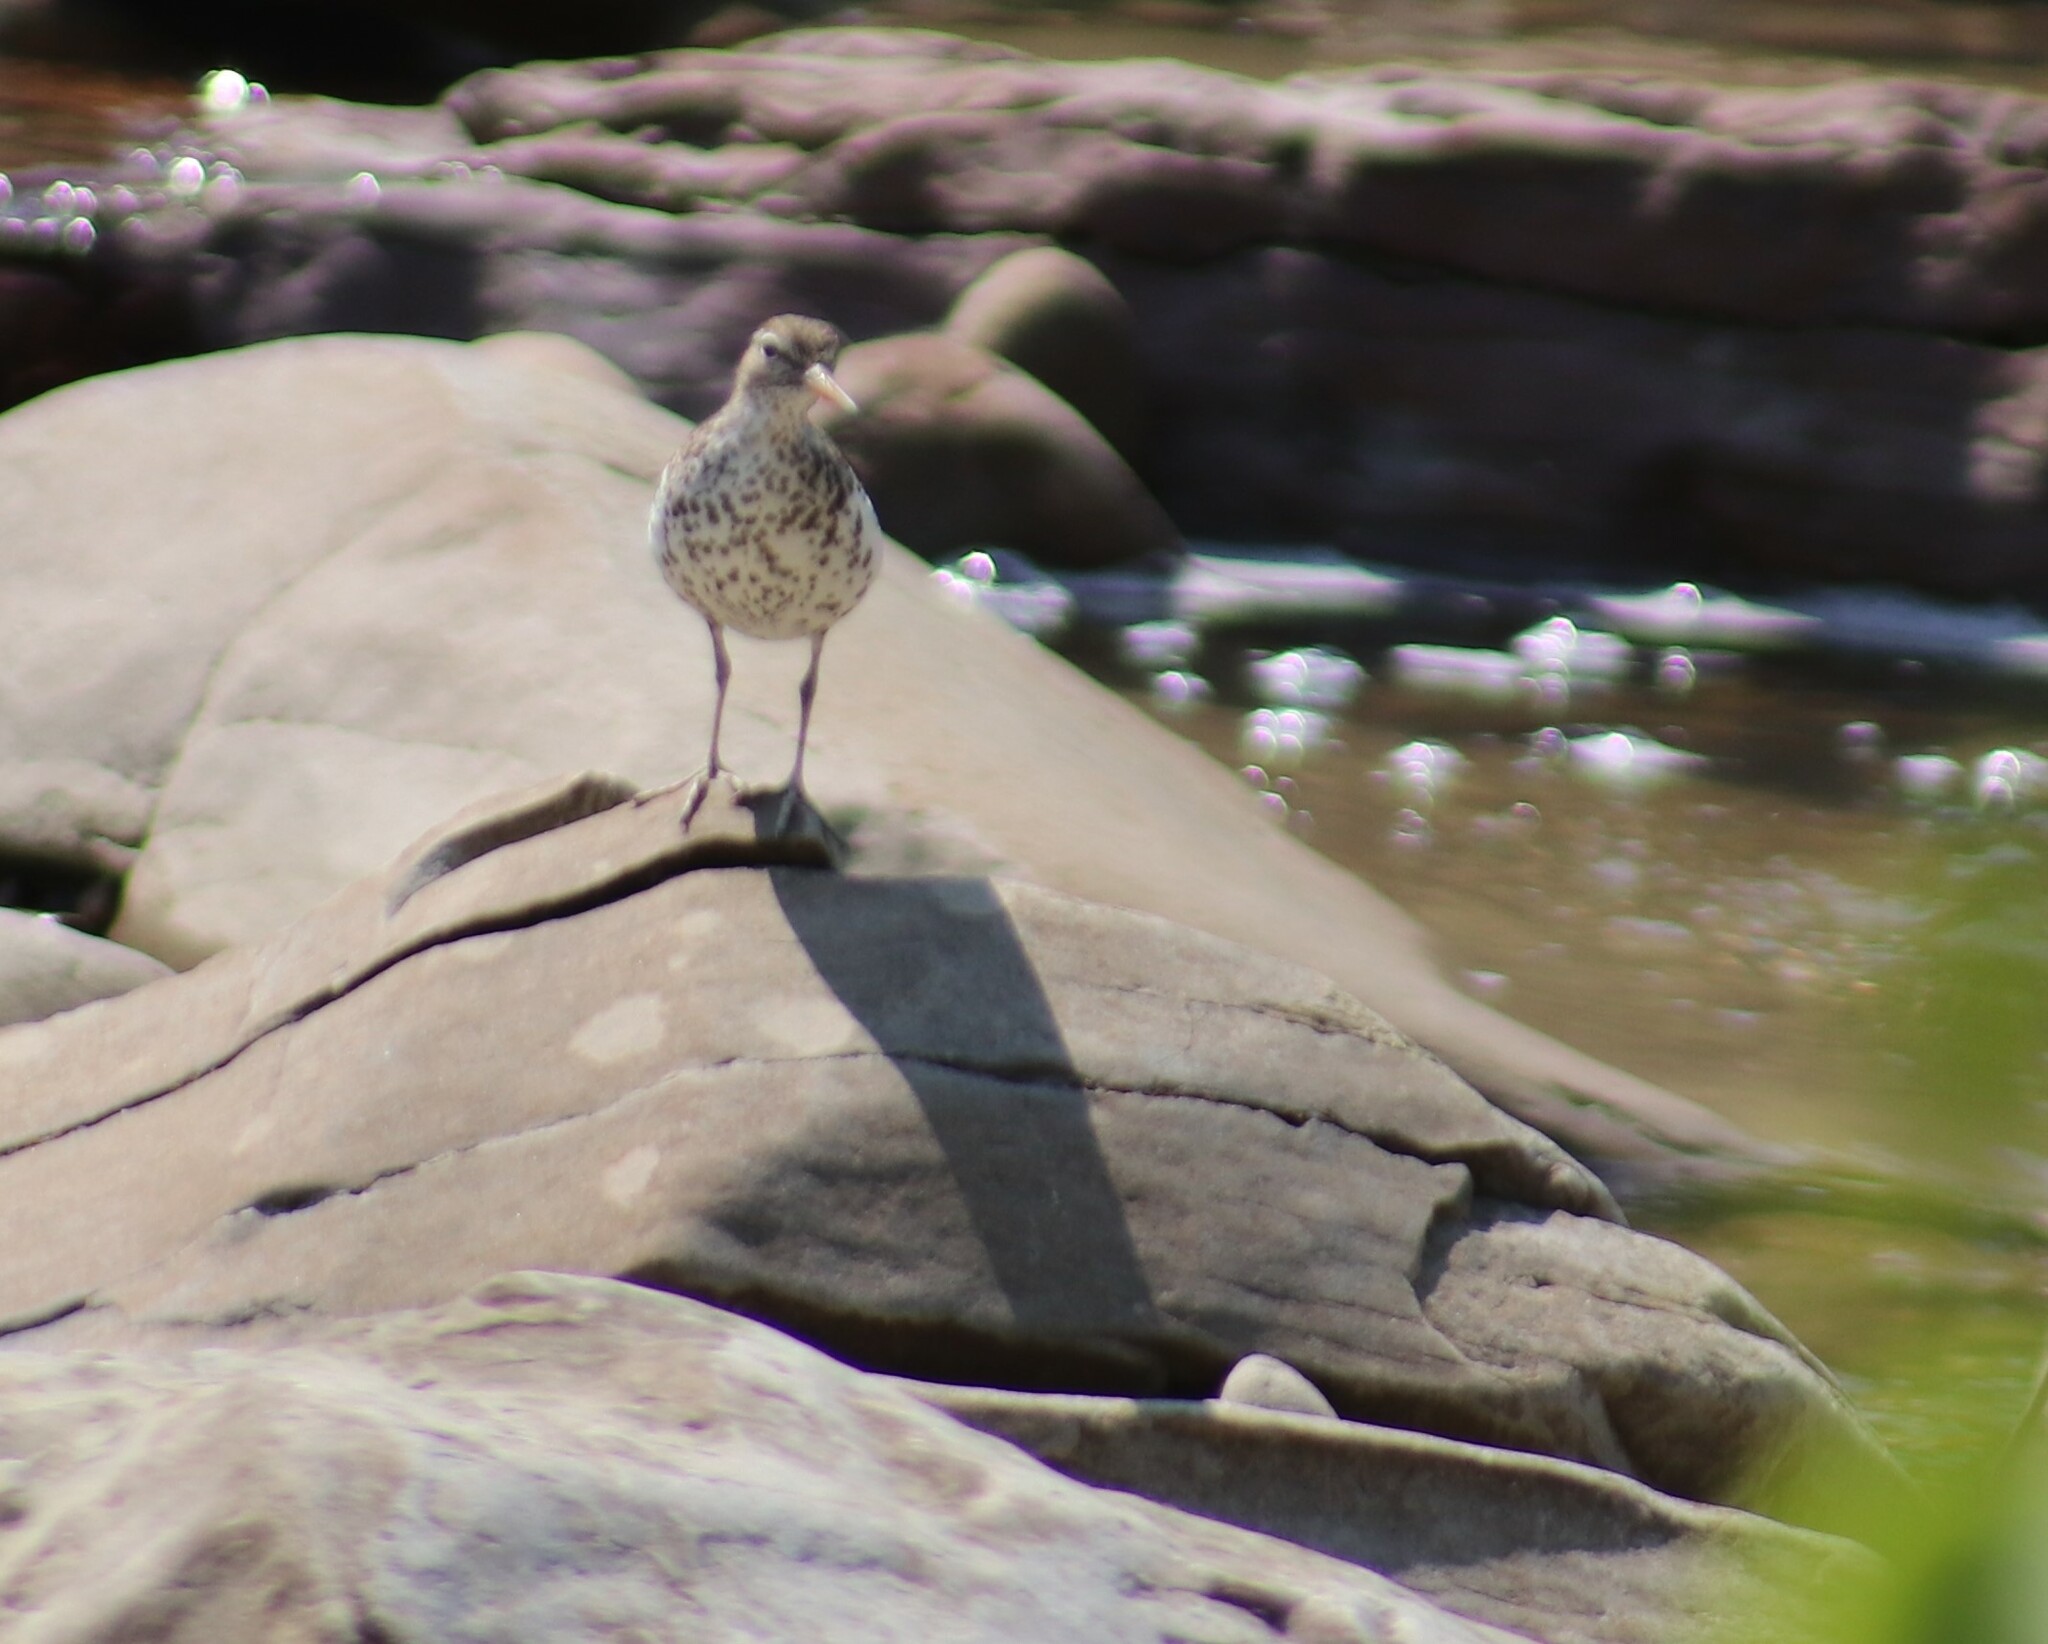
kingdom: Animalia
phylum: Chordata
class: Aves
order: Charadriiformes
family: Scolopacidae
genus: Actitis
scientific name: Actitis macularius
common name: Spotted sandpiper
